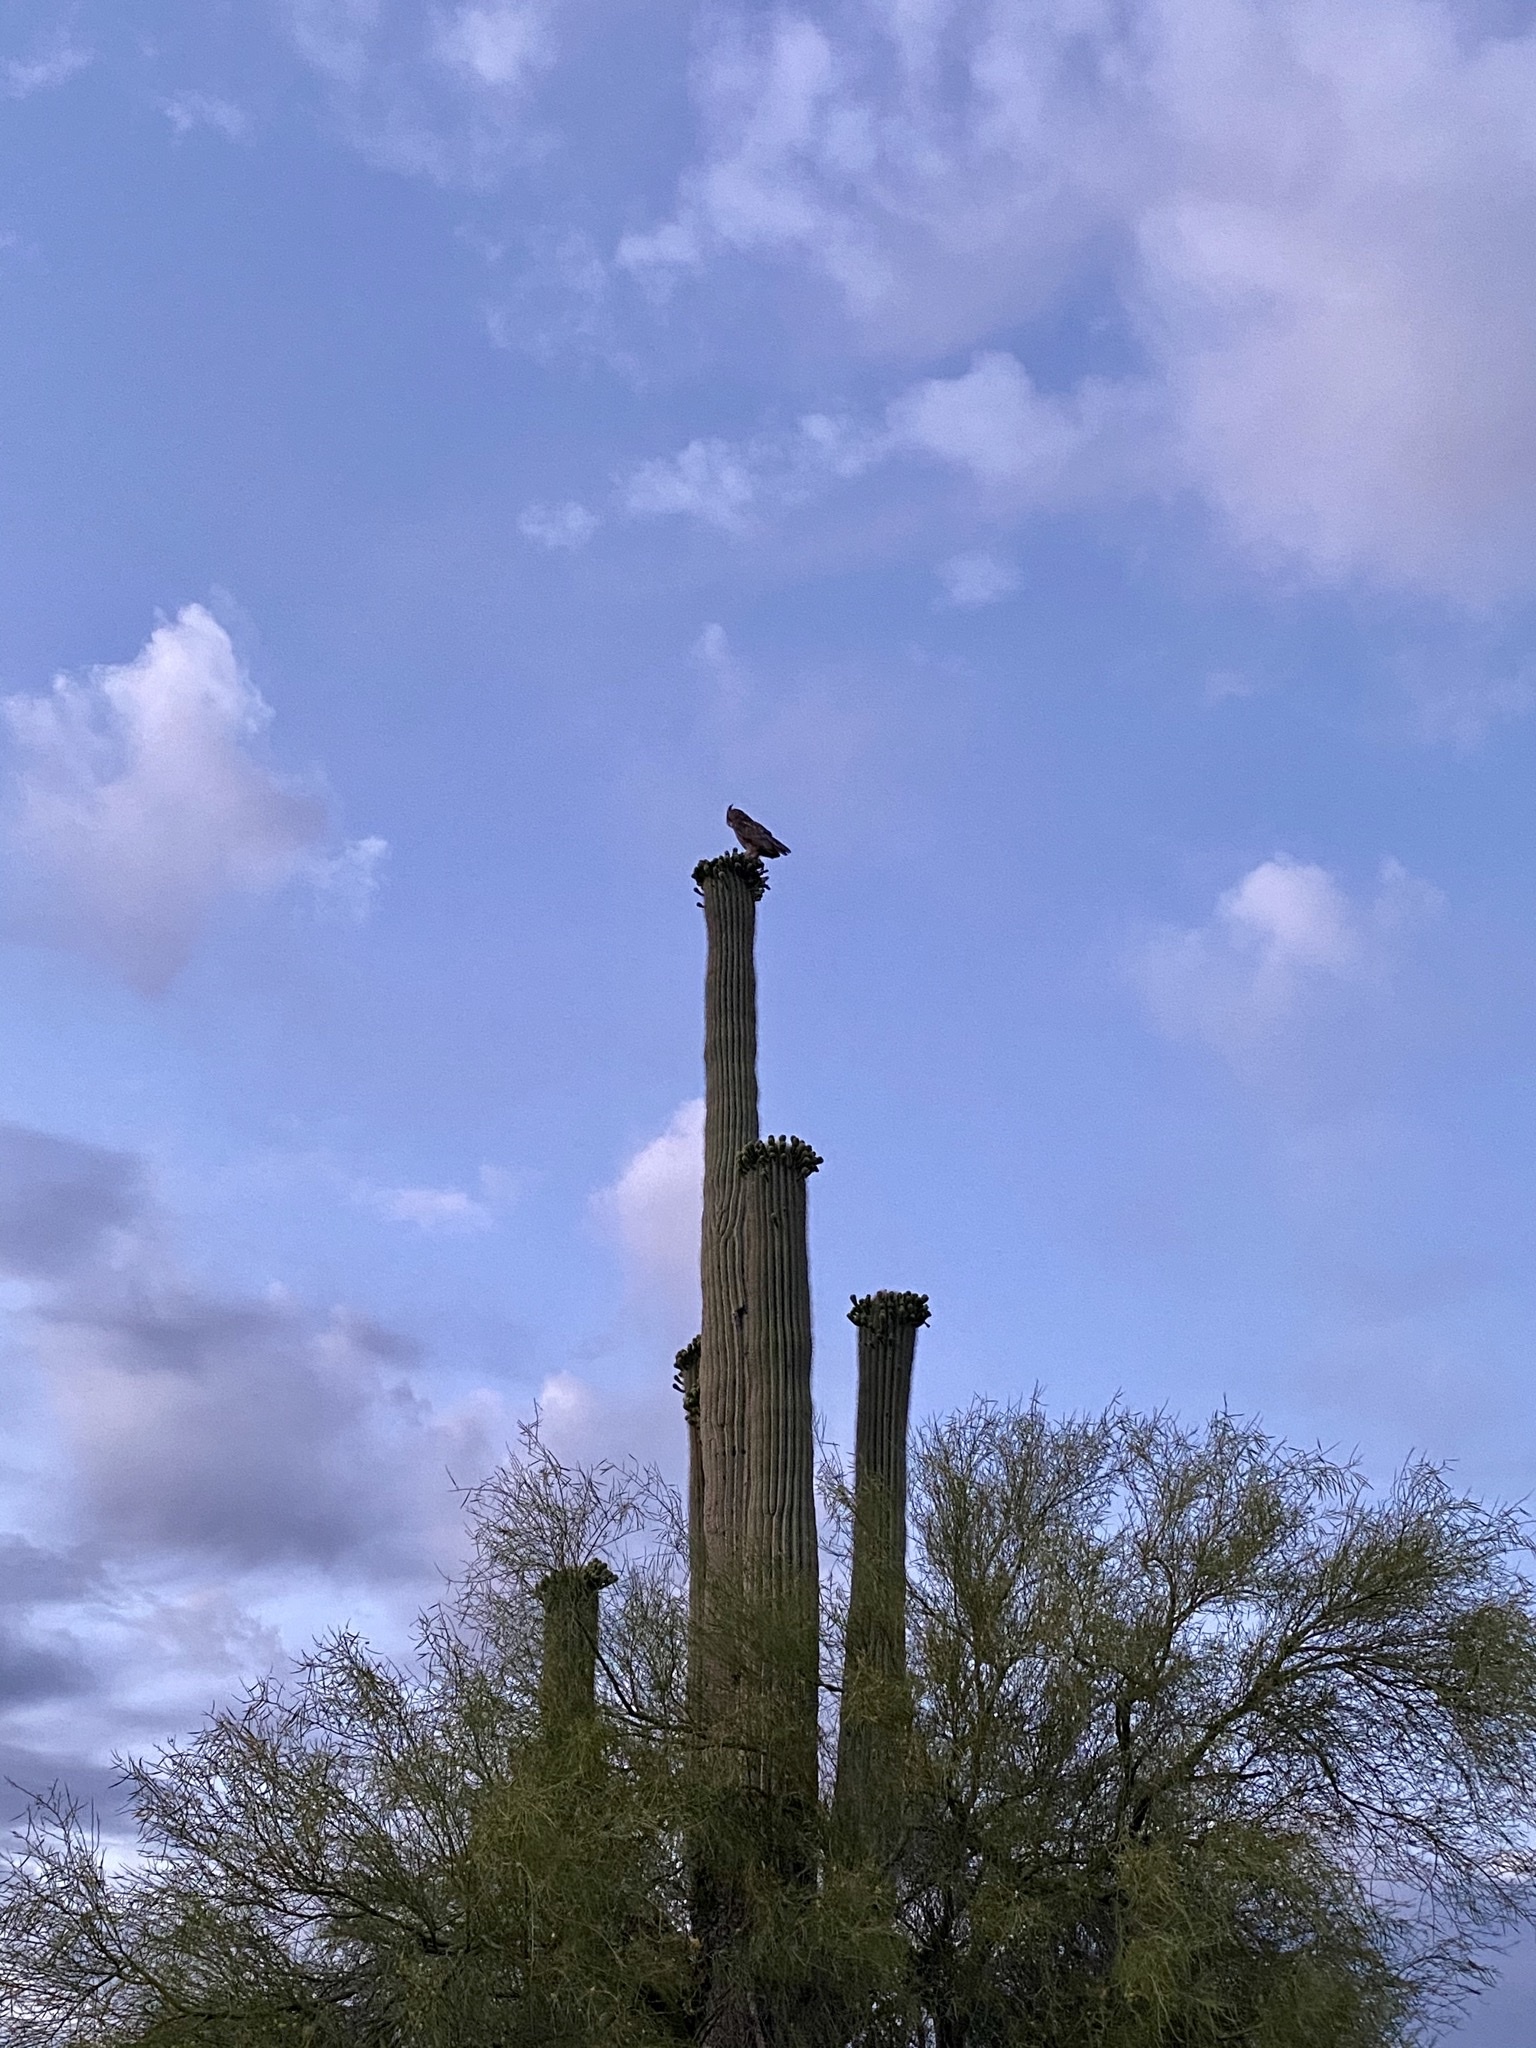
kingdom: Animalia
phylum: Chordata
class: Aves
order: Strigiformes
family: Strigidae
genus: Bubo
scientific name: Bubo virginianus
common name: Great horned owl
